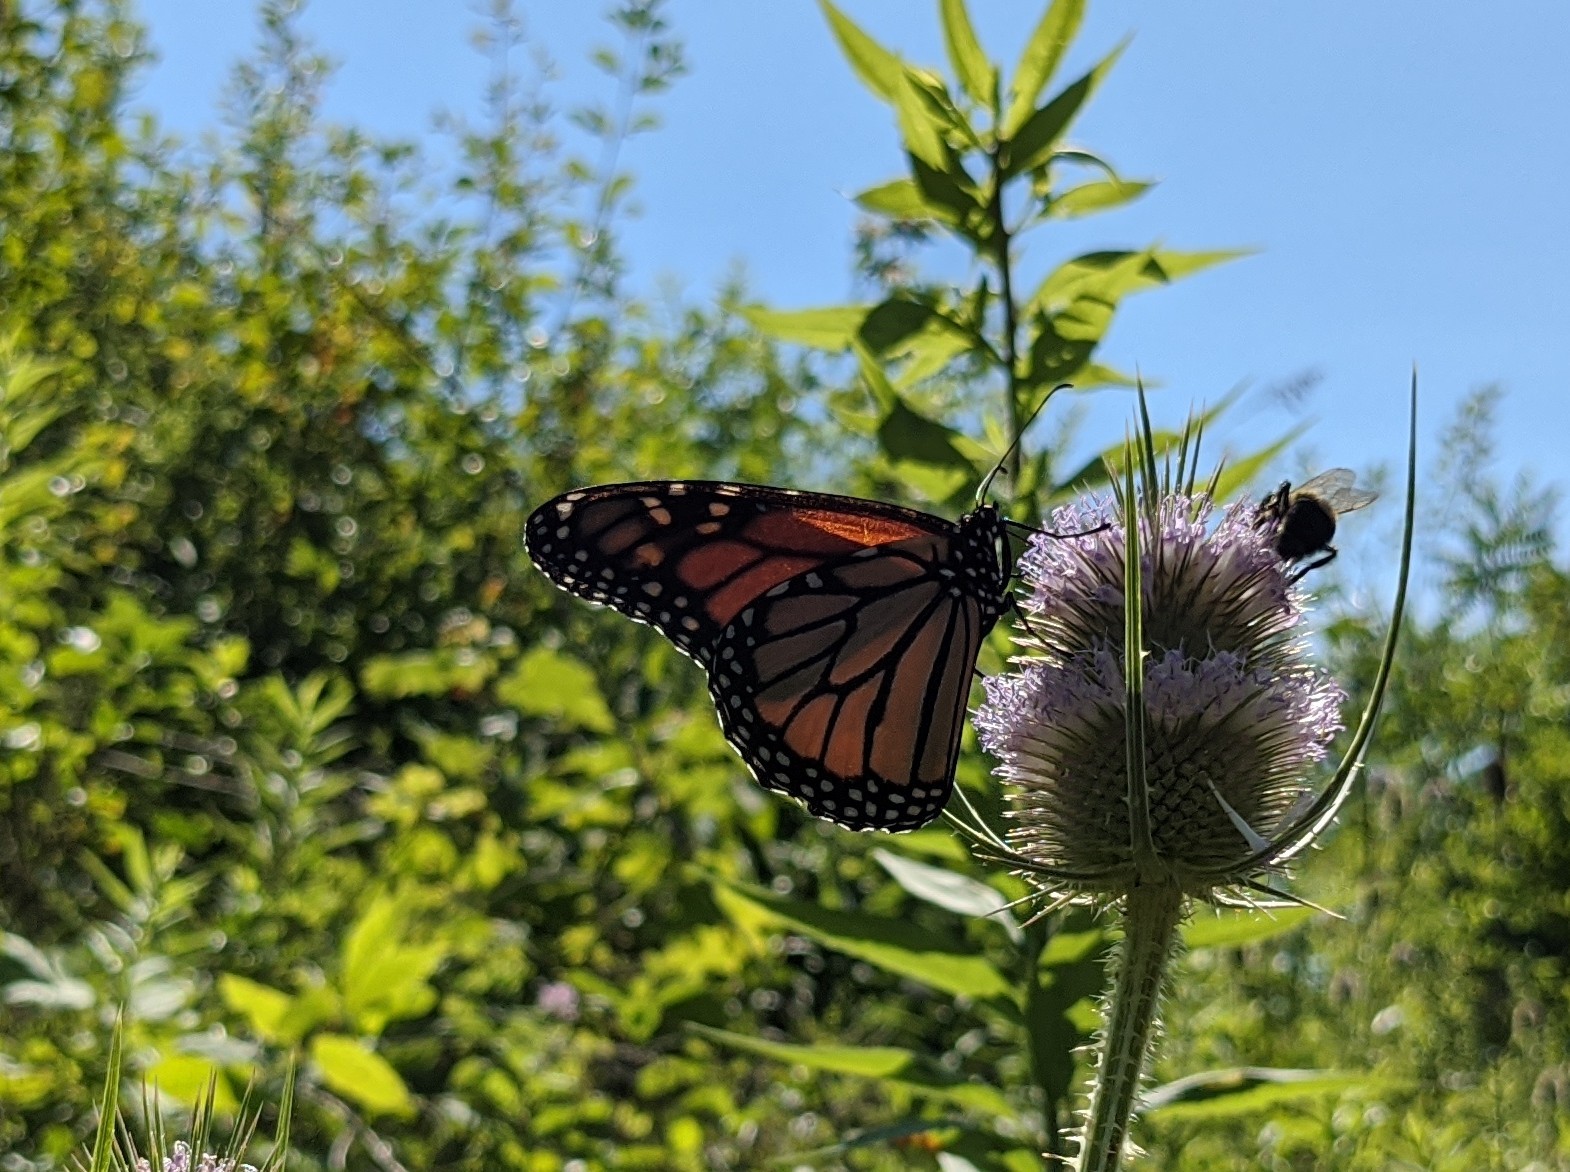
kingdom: Animalia
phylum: Arthropoda
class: Insecta
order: Lepidoptera
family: Nymphalidae
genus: Danaus
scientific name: Danaus plexippus
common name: Monarch
